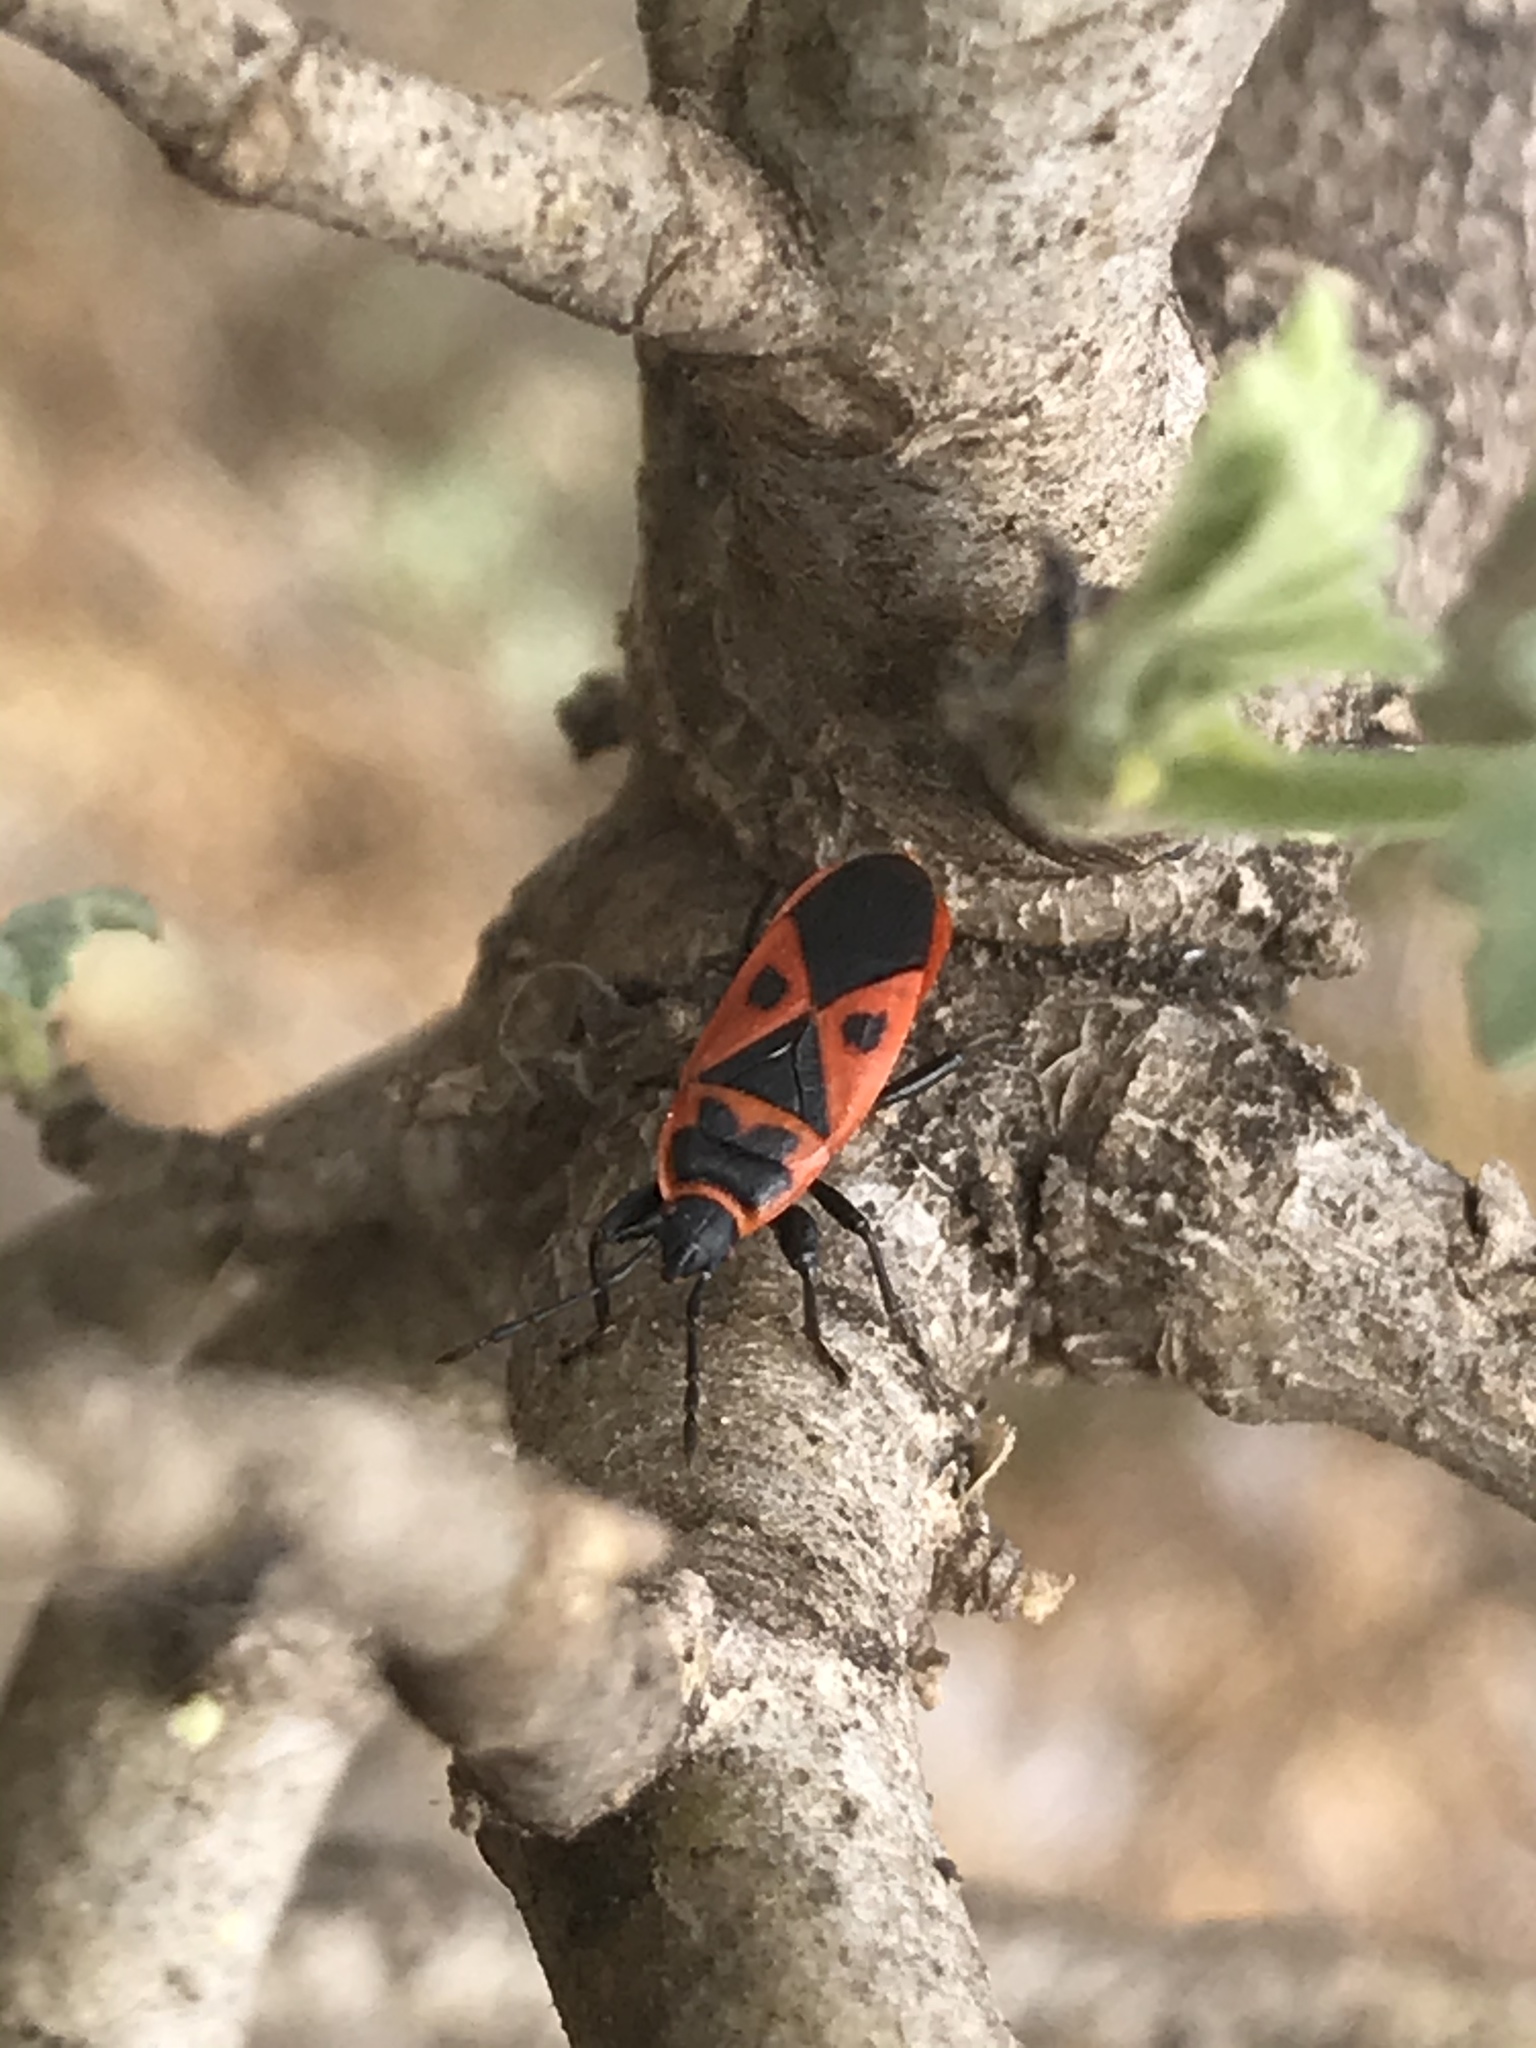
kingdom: Animalia
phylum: Arthropoda
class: Insecta
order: Hemiptera
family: Pyrrhocoridae
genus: Scantius
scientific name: Scantius aegyptius
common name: Red bug
